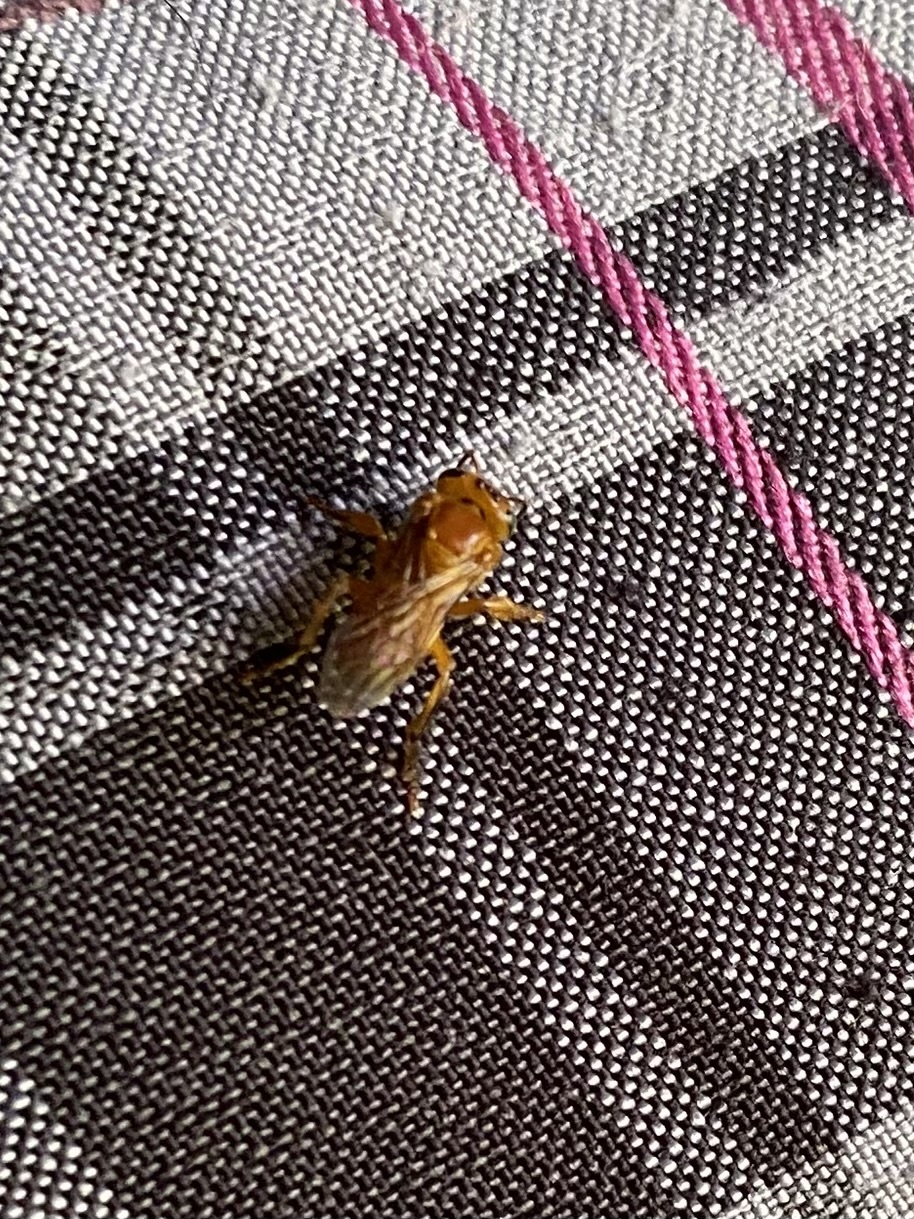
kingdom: Animalia
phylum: Arthropoda
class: Insecta
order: Hymenoptera
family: Apidae
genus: Partamona
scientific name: Partamona musarum
